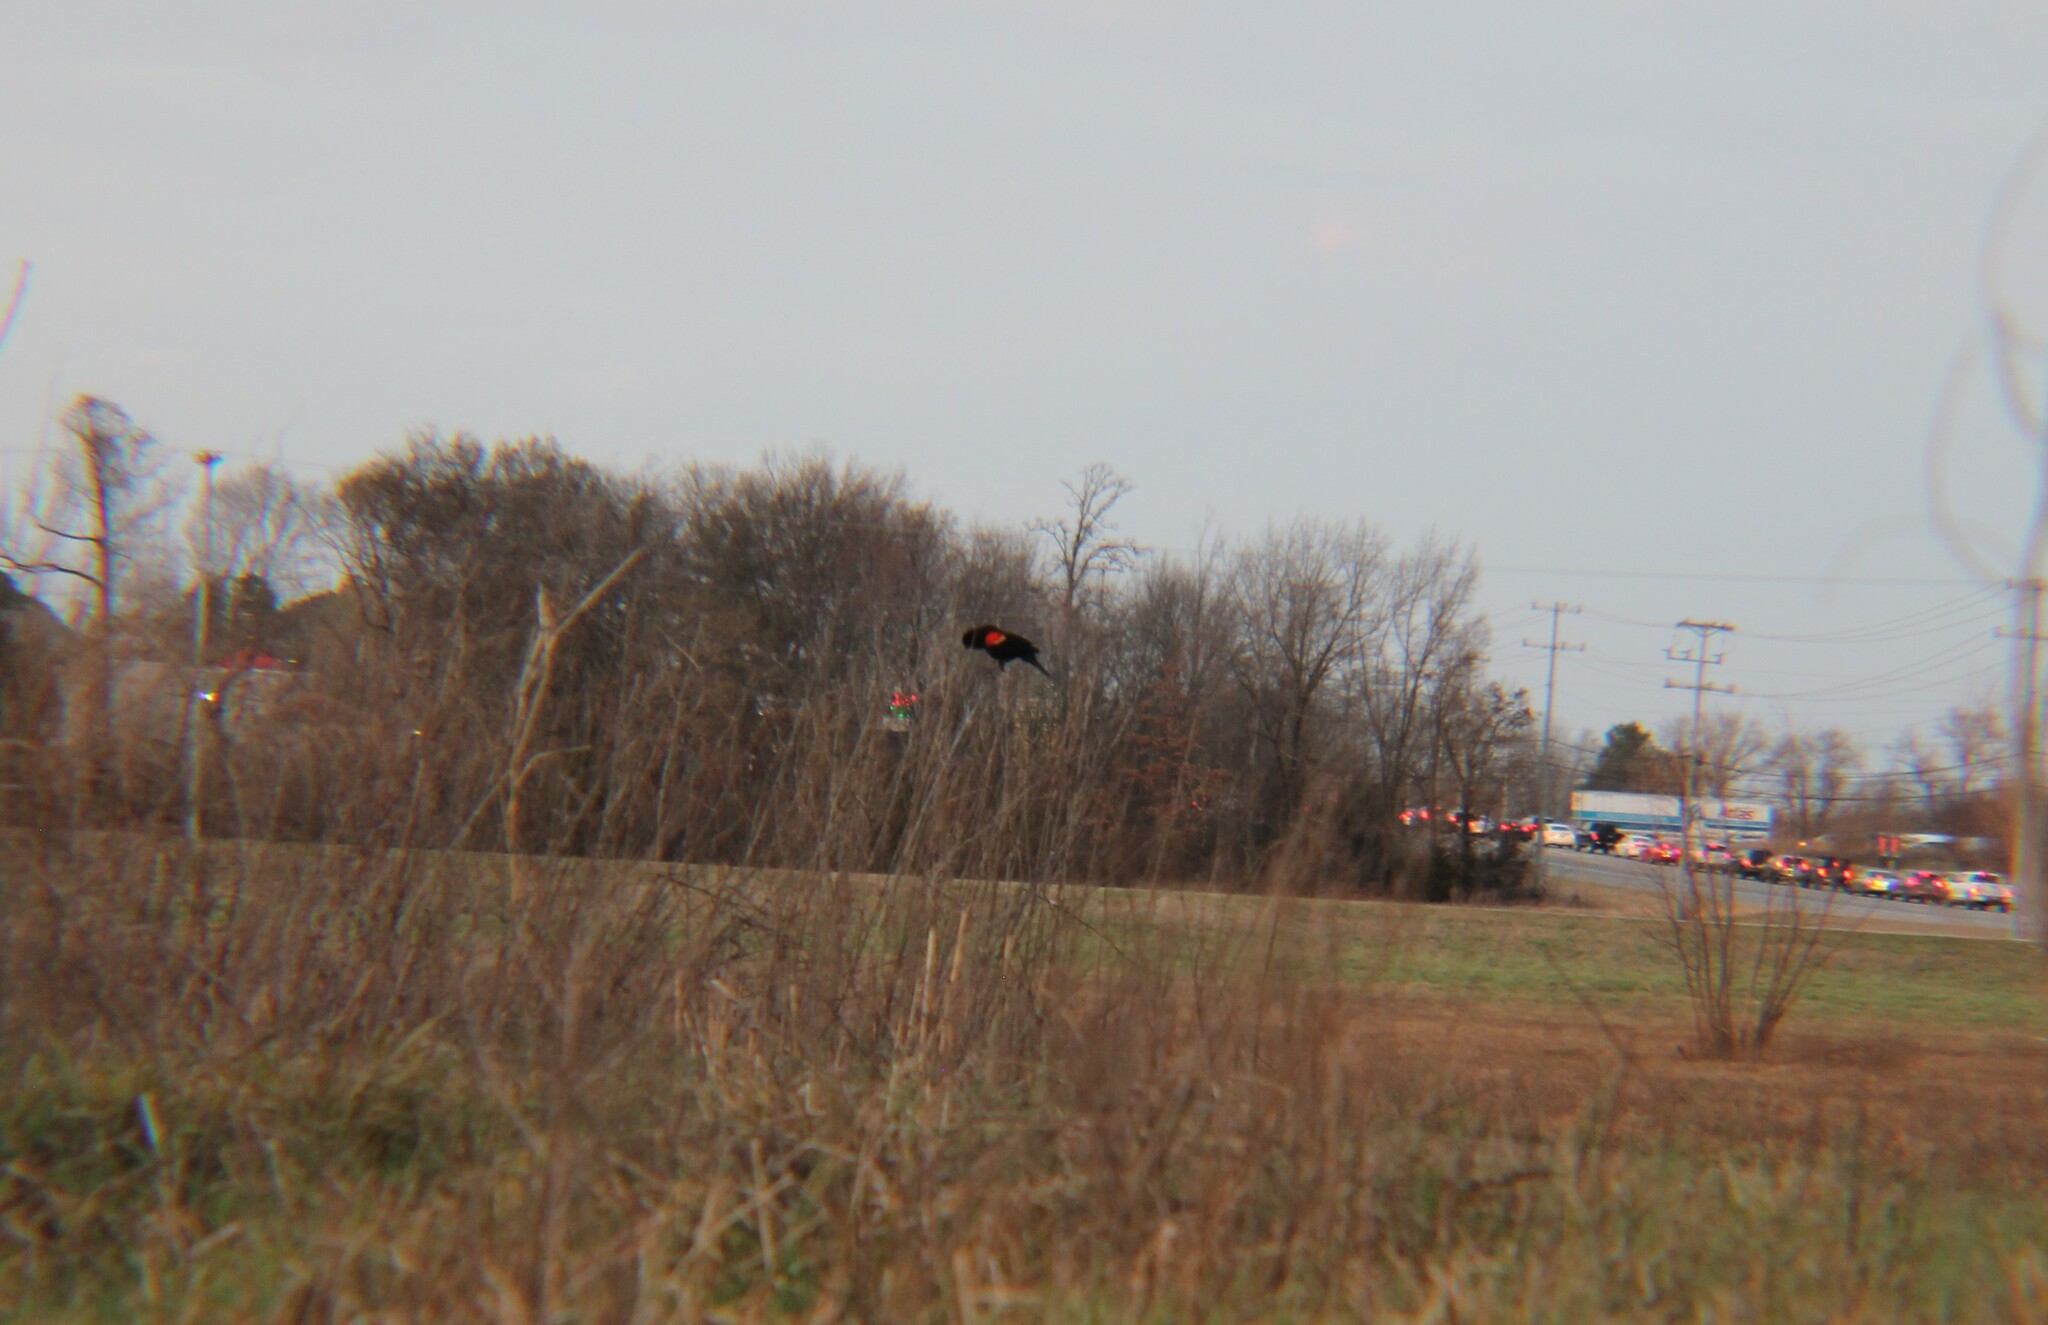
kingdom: Animalia
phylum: Chordata
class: Aves
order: Passeriformes
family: Icteridae
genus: Agelaius
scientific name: Agelaius phoeniceus
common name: Red-winged blackbird
